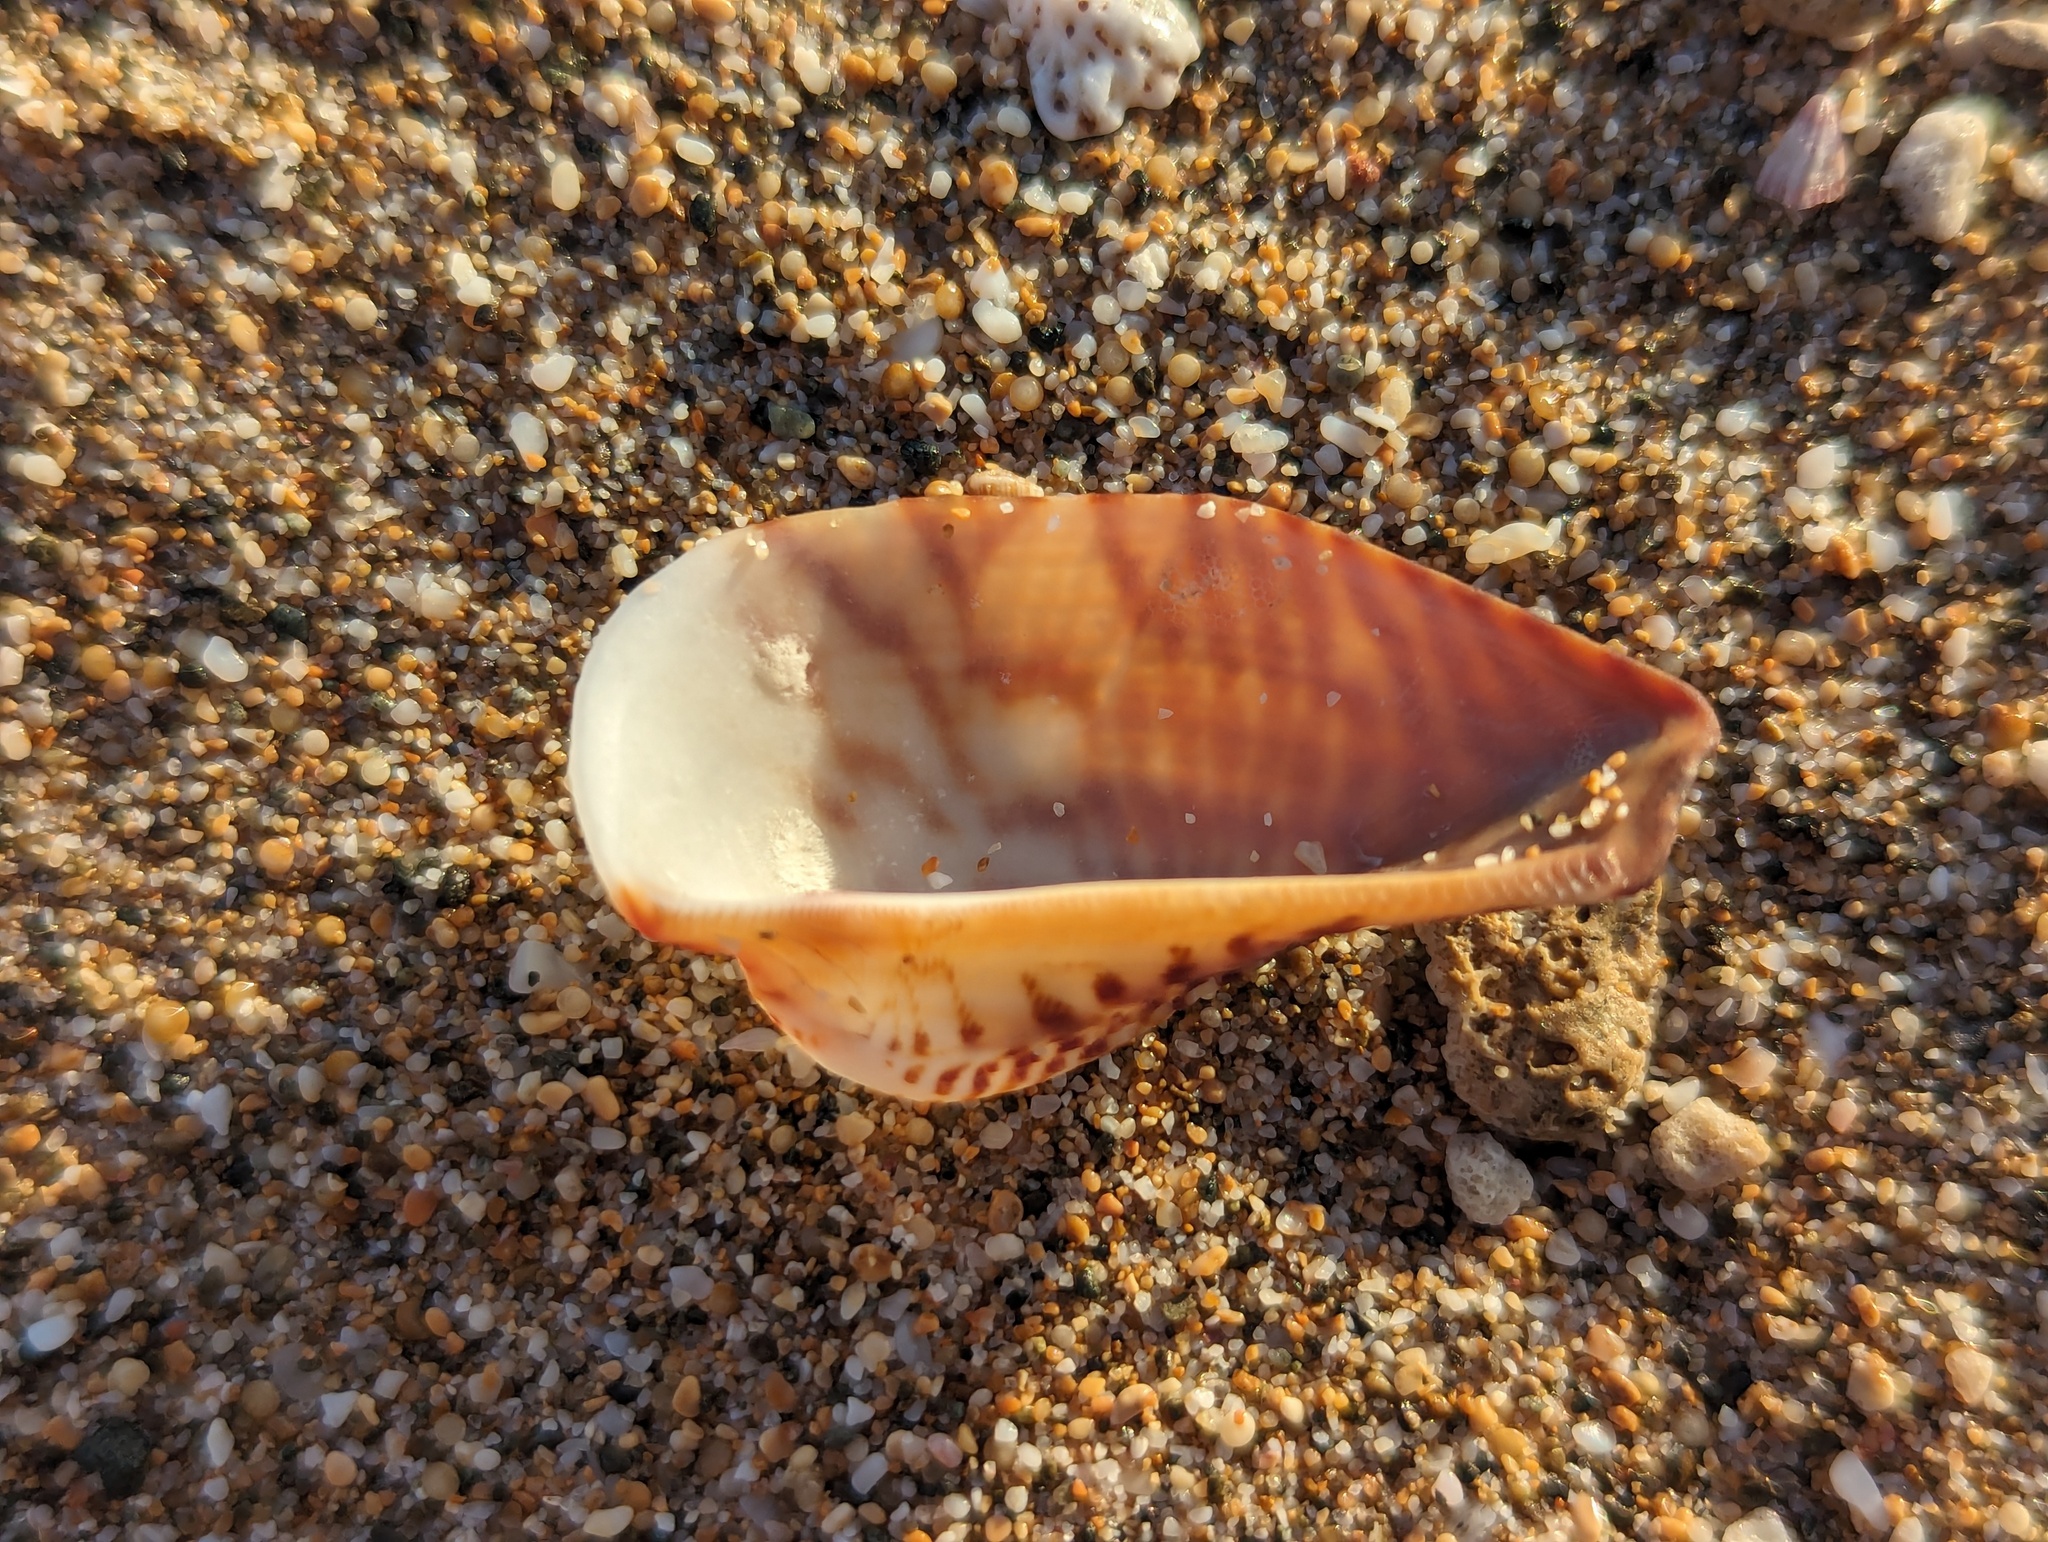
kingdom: Animalia
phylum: Mollusca
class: Bivalvia
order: Arcida
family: Arcidae
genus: Lamarcka
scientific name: Lamarcka ventricosa
